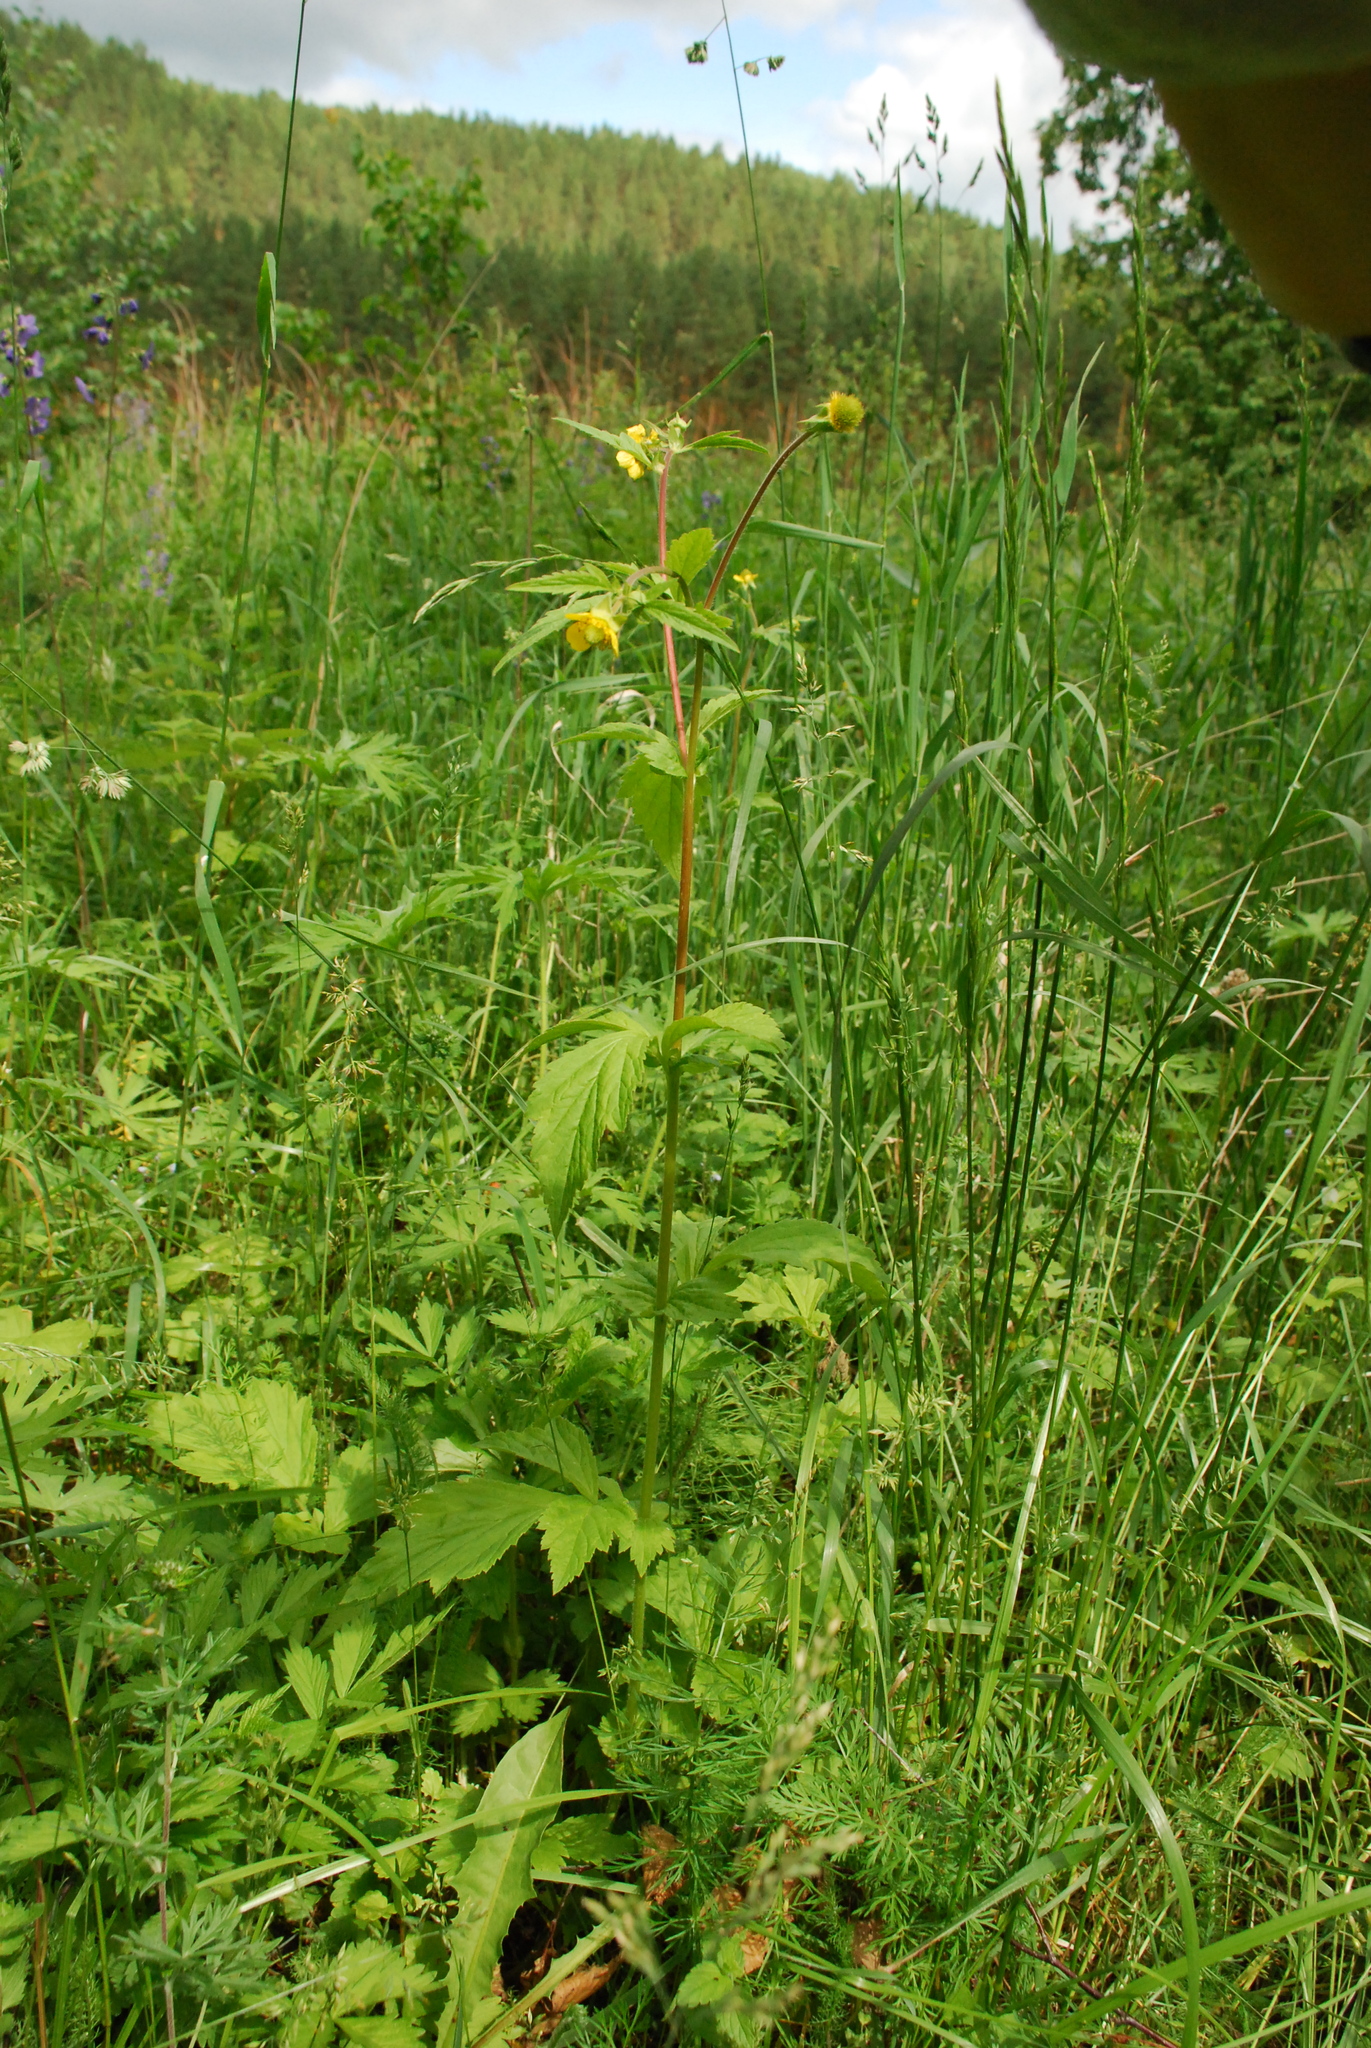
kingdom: Plantae
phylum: Tracheophyta
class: Magnoliopsida
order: Rosales
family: Rosaceae
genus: Geum
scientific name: Geum aleppicum
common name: Yellow avens
